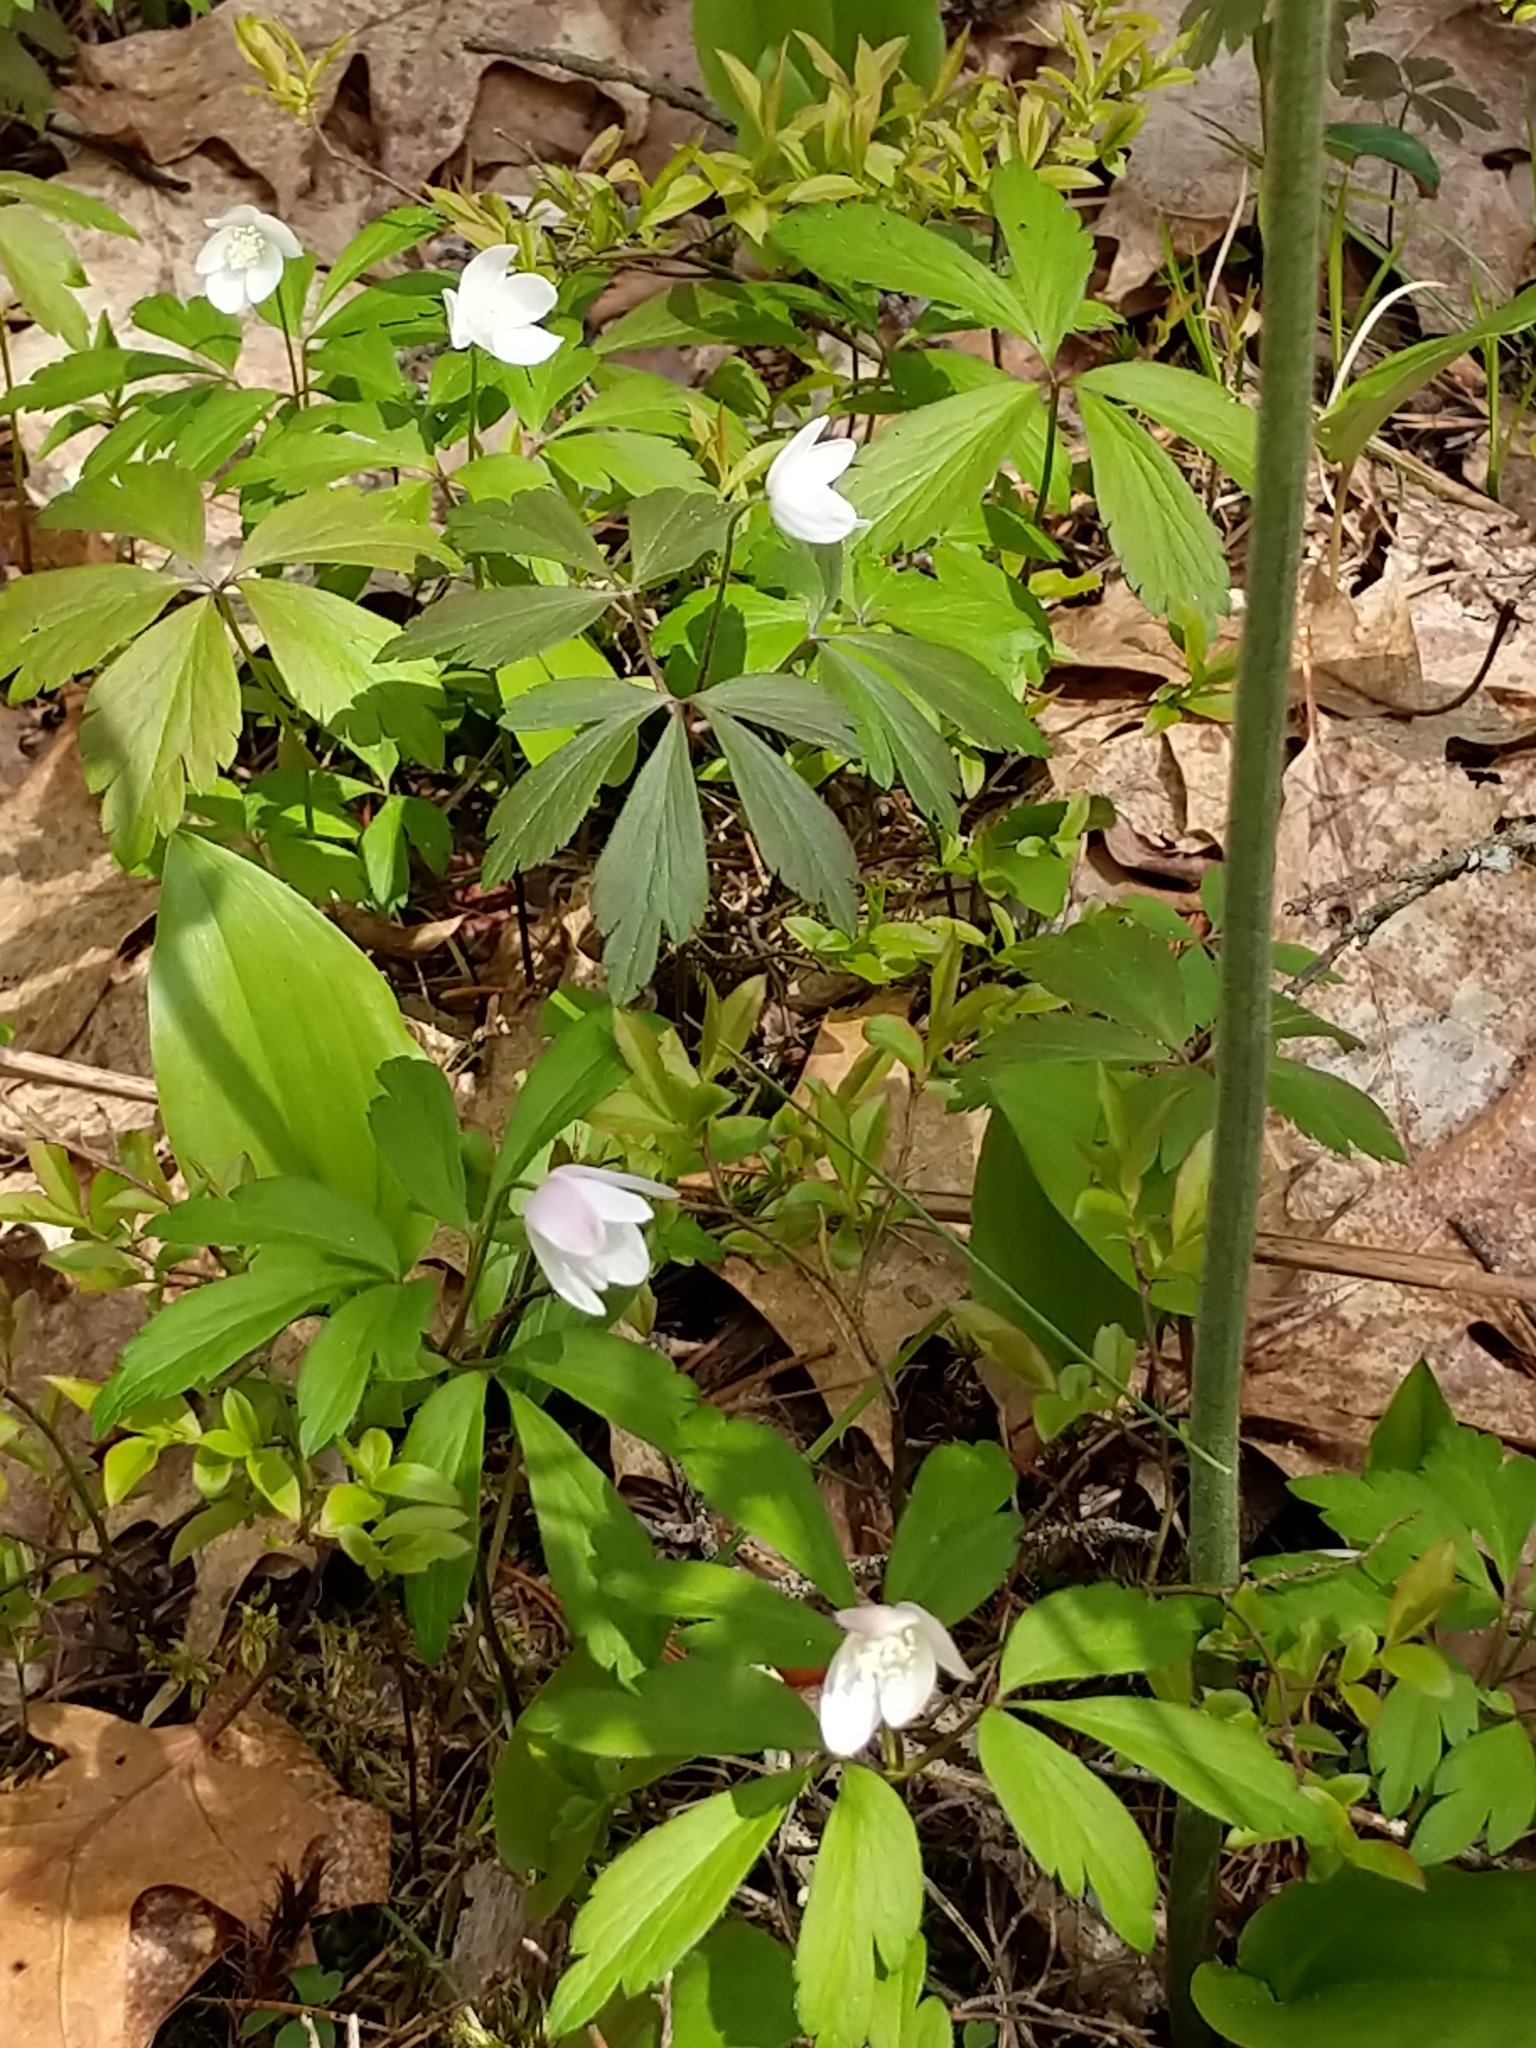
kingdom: Plantae
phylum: Tracheophyta
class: Magnoliopsida
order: Ranunculales
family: Ranunculaceae
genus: Anemone
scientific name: Anemone quinquefolia
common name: Wood anemone
